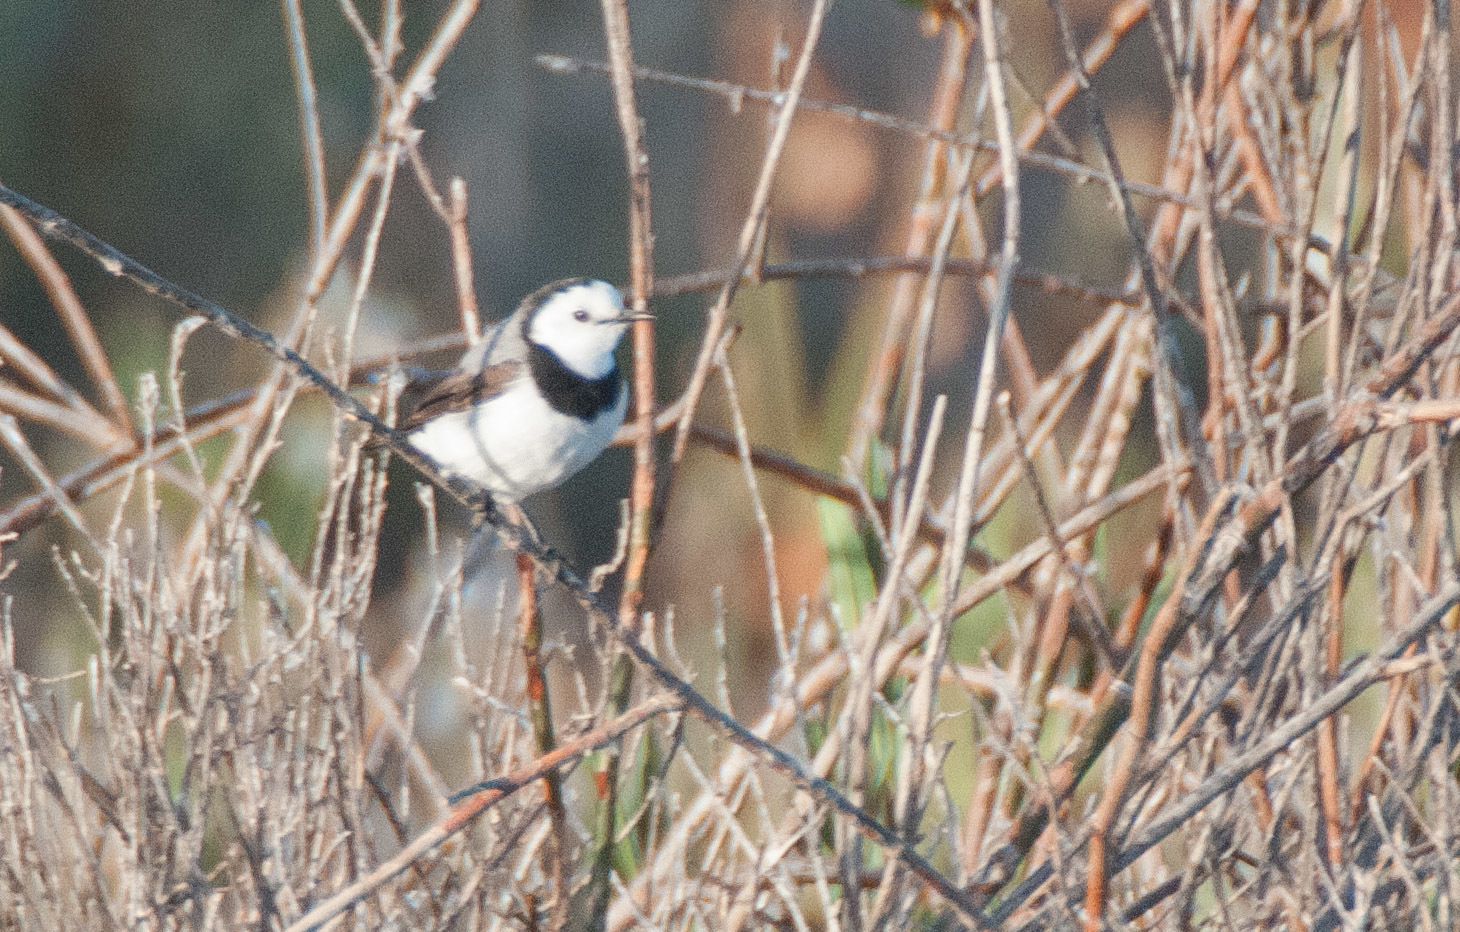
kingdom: Animalia
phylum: Chordata
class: Aves
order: Passeriformes
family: Meliphagidae
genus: Epthianura
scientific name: Epthianura albifrons
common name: White-fronted chat
